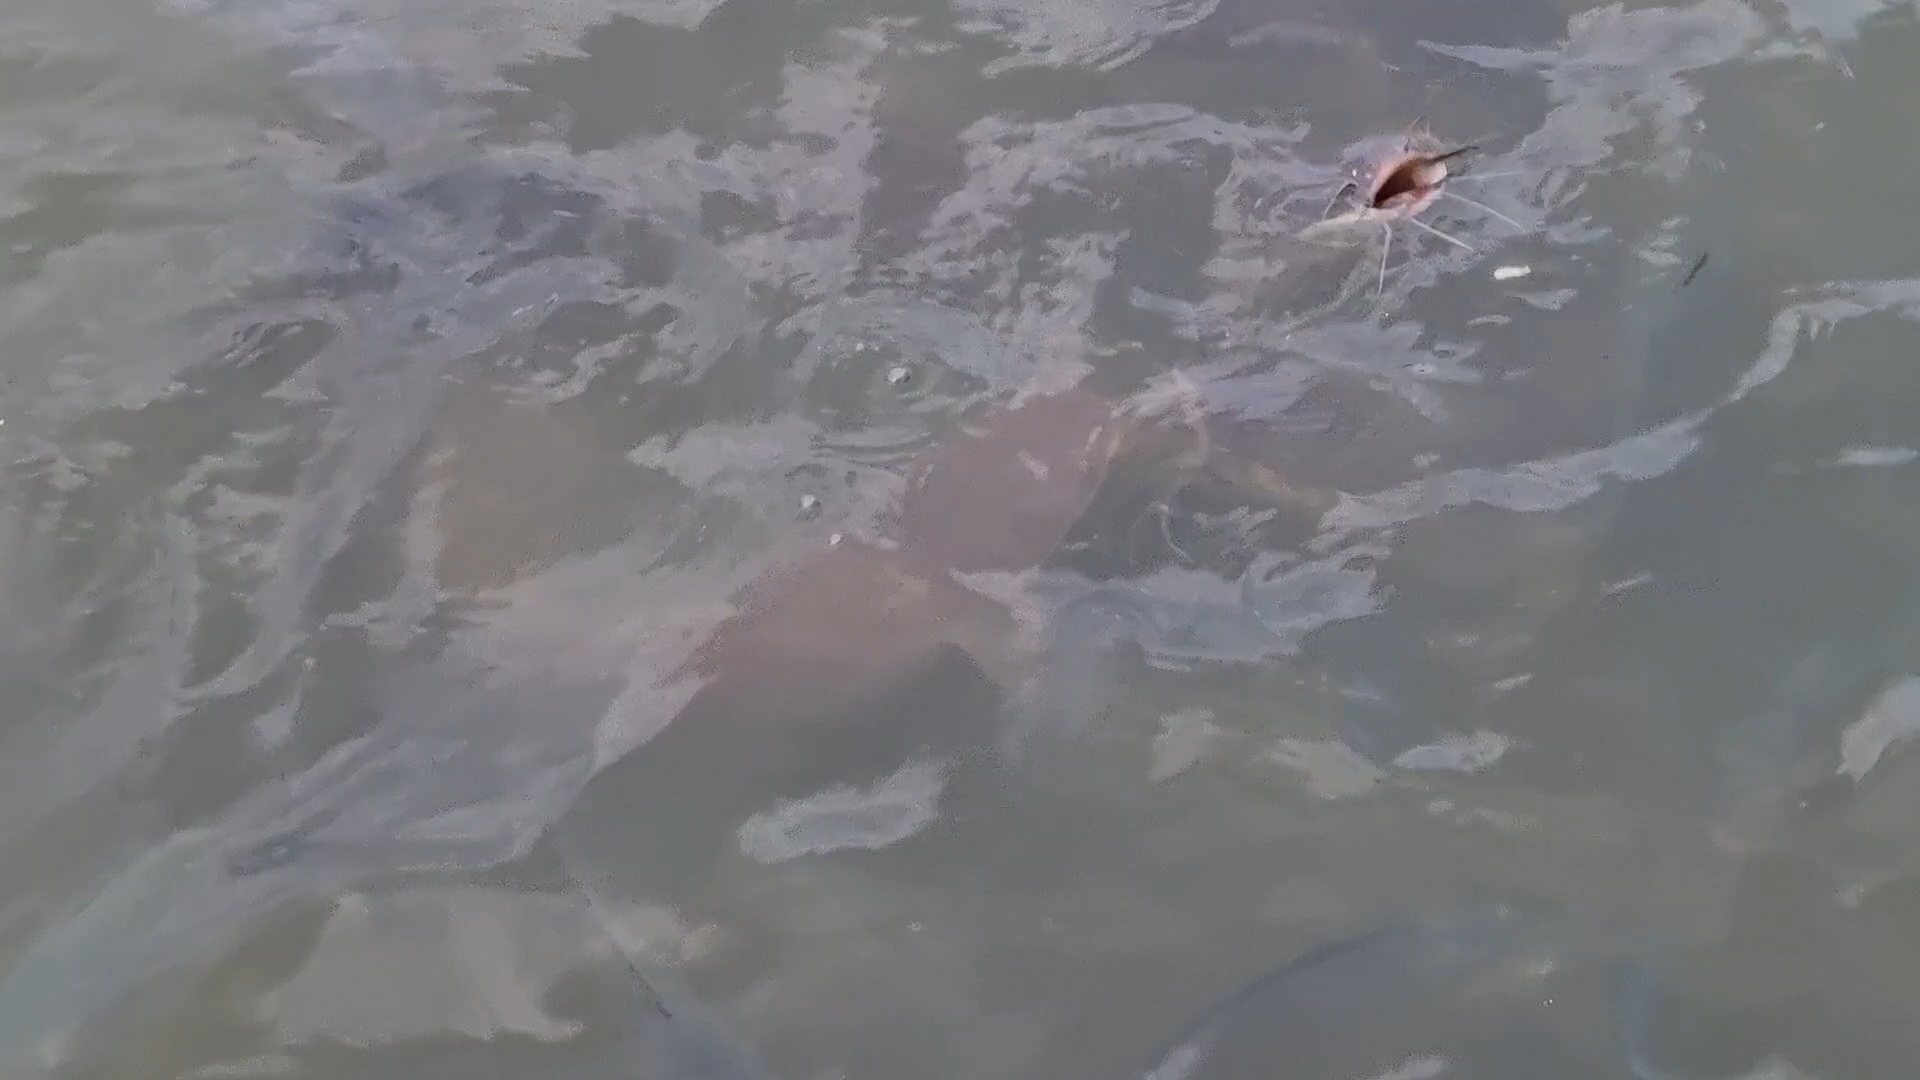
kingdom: Animalia
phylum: Chordata
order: Siluriformes
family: Clariidae
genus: Clarias
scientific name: Clarias gariepinus
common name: African catfish
